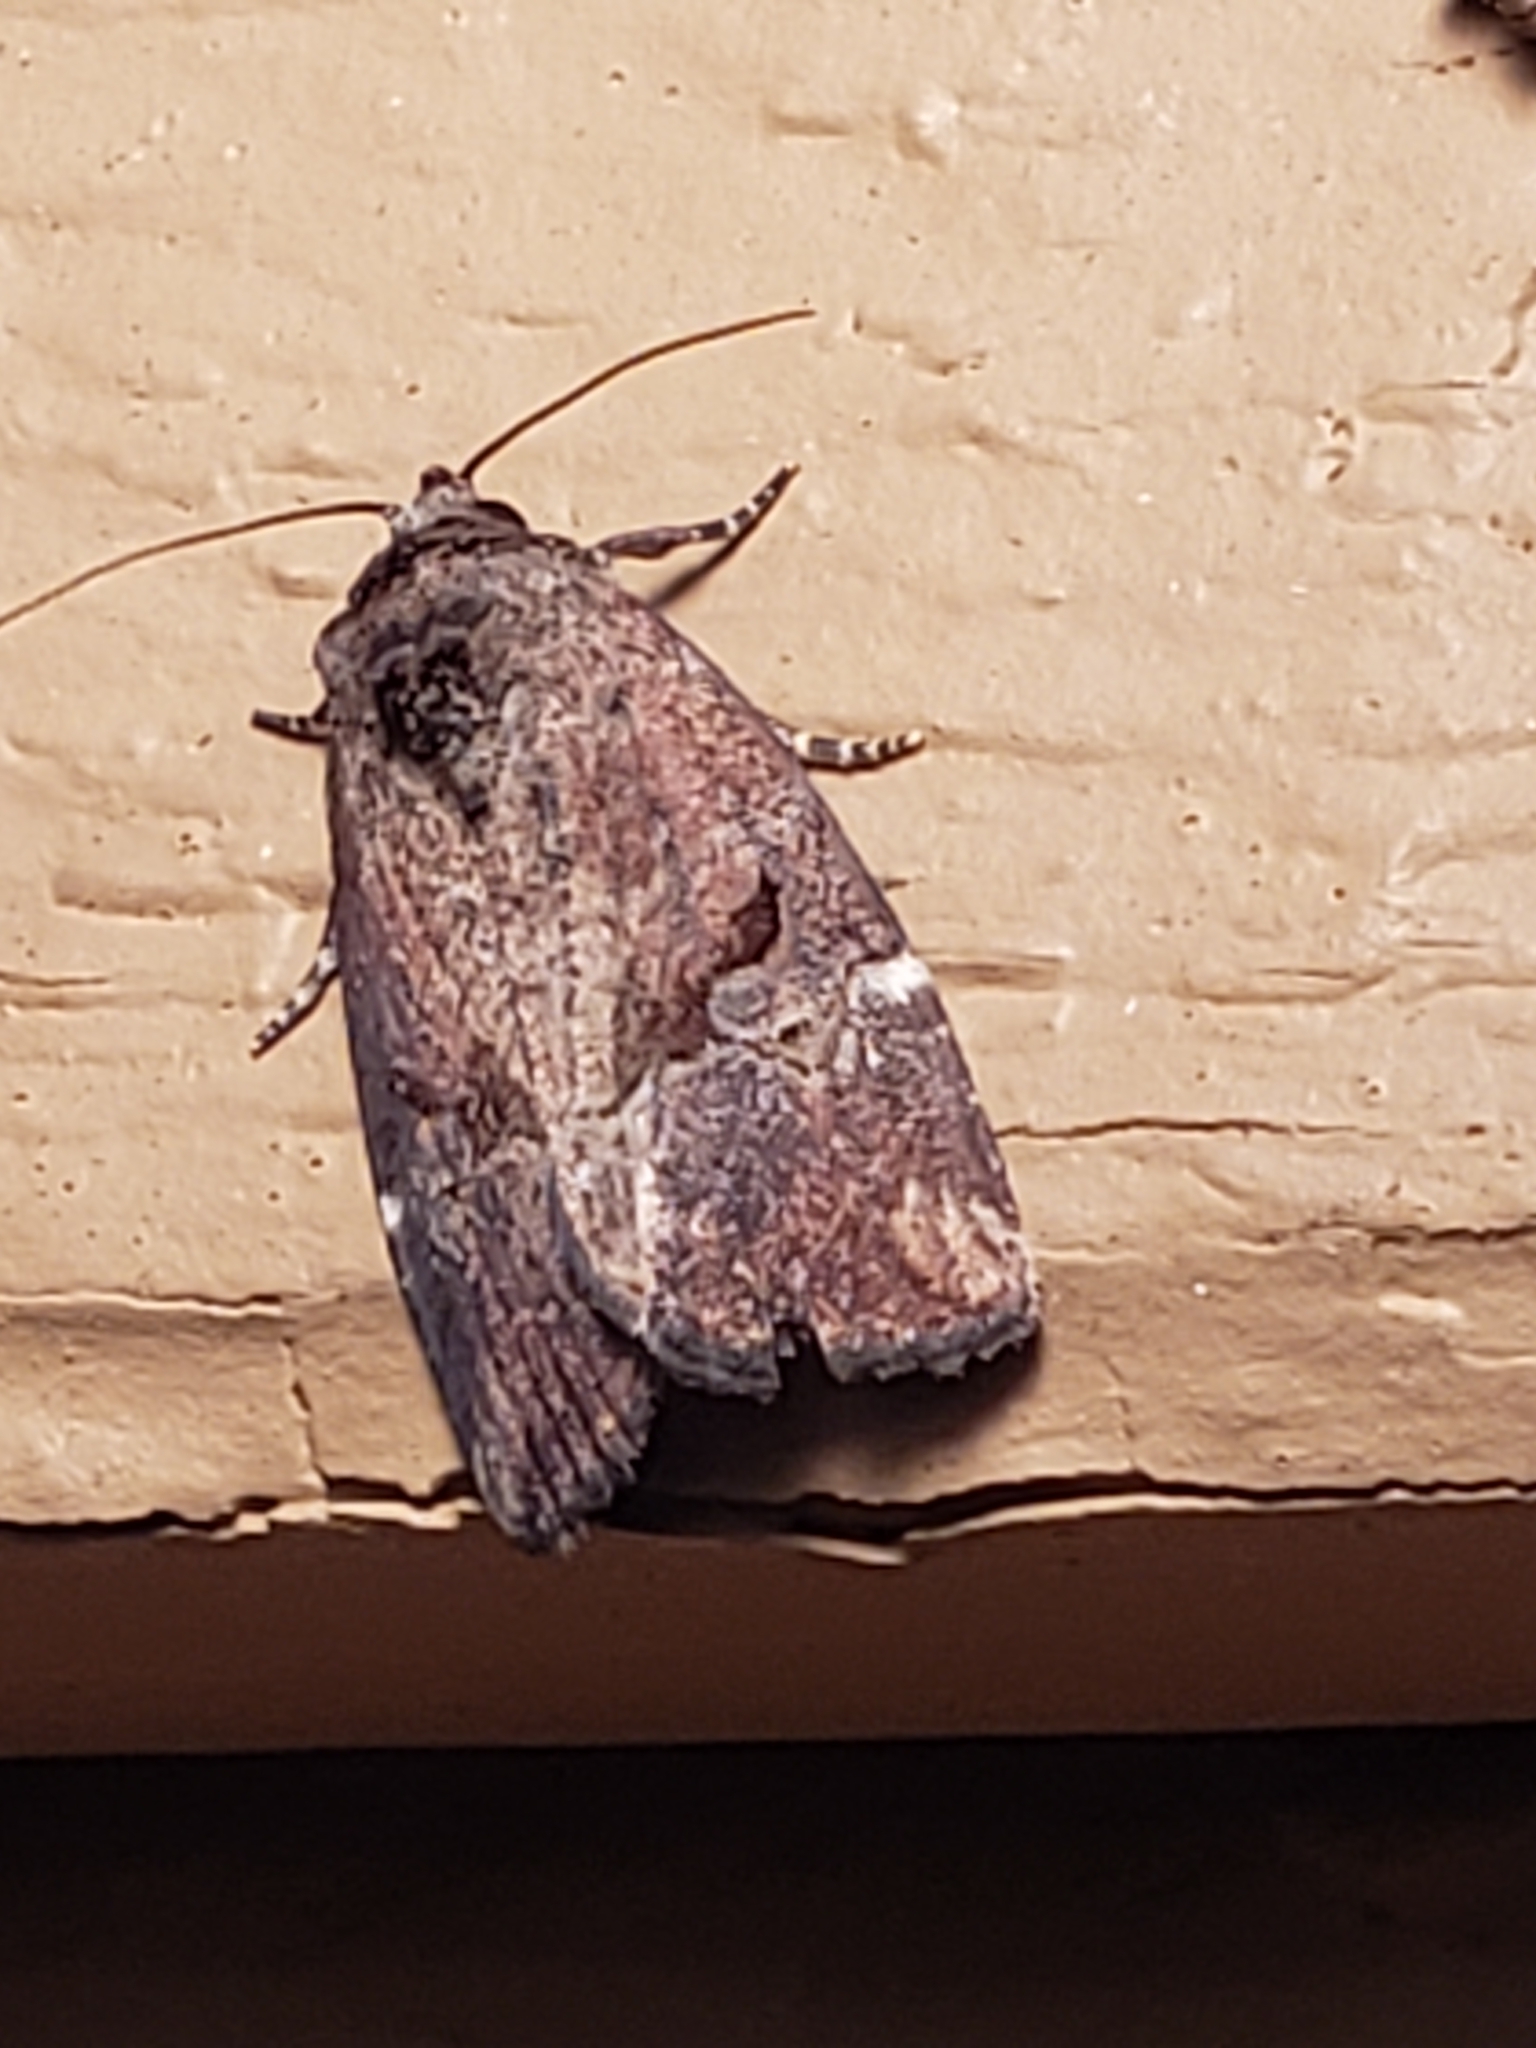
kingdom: Animalia
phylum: Arthropoda
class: Insecta
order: Lepidoptera
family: Noctuidae
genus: Elaphria
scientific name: Elaphria versicolor
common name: Fir harlequin
